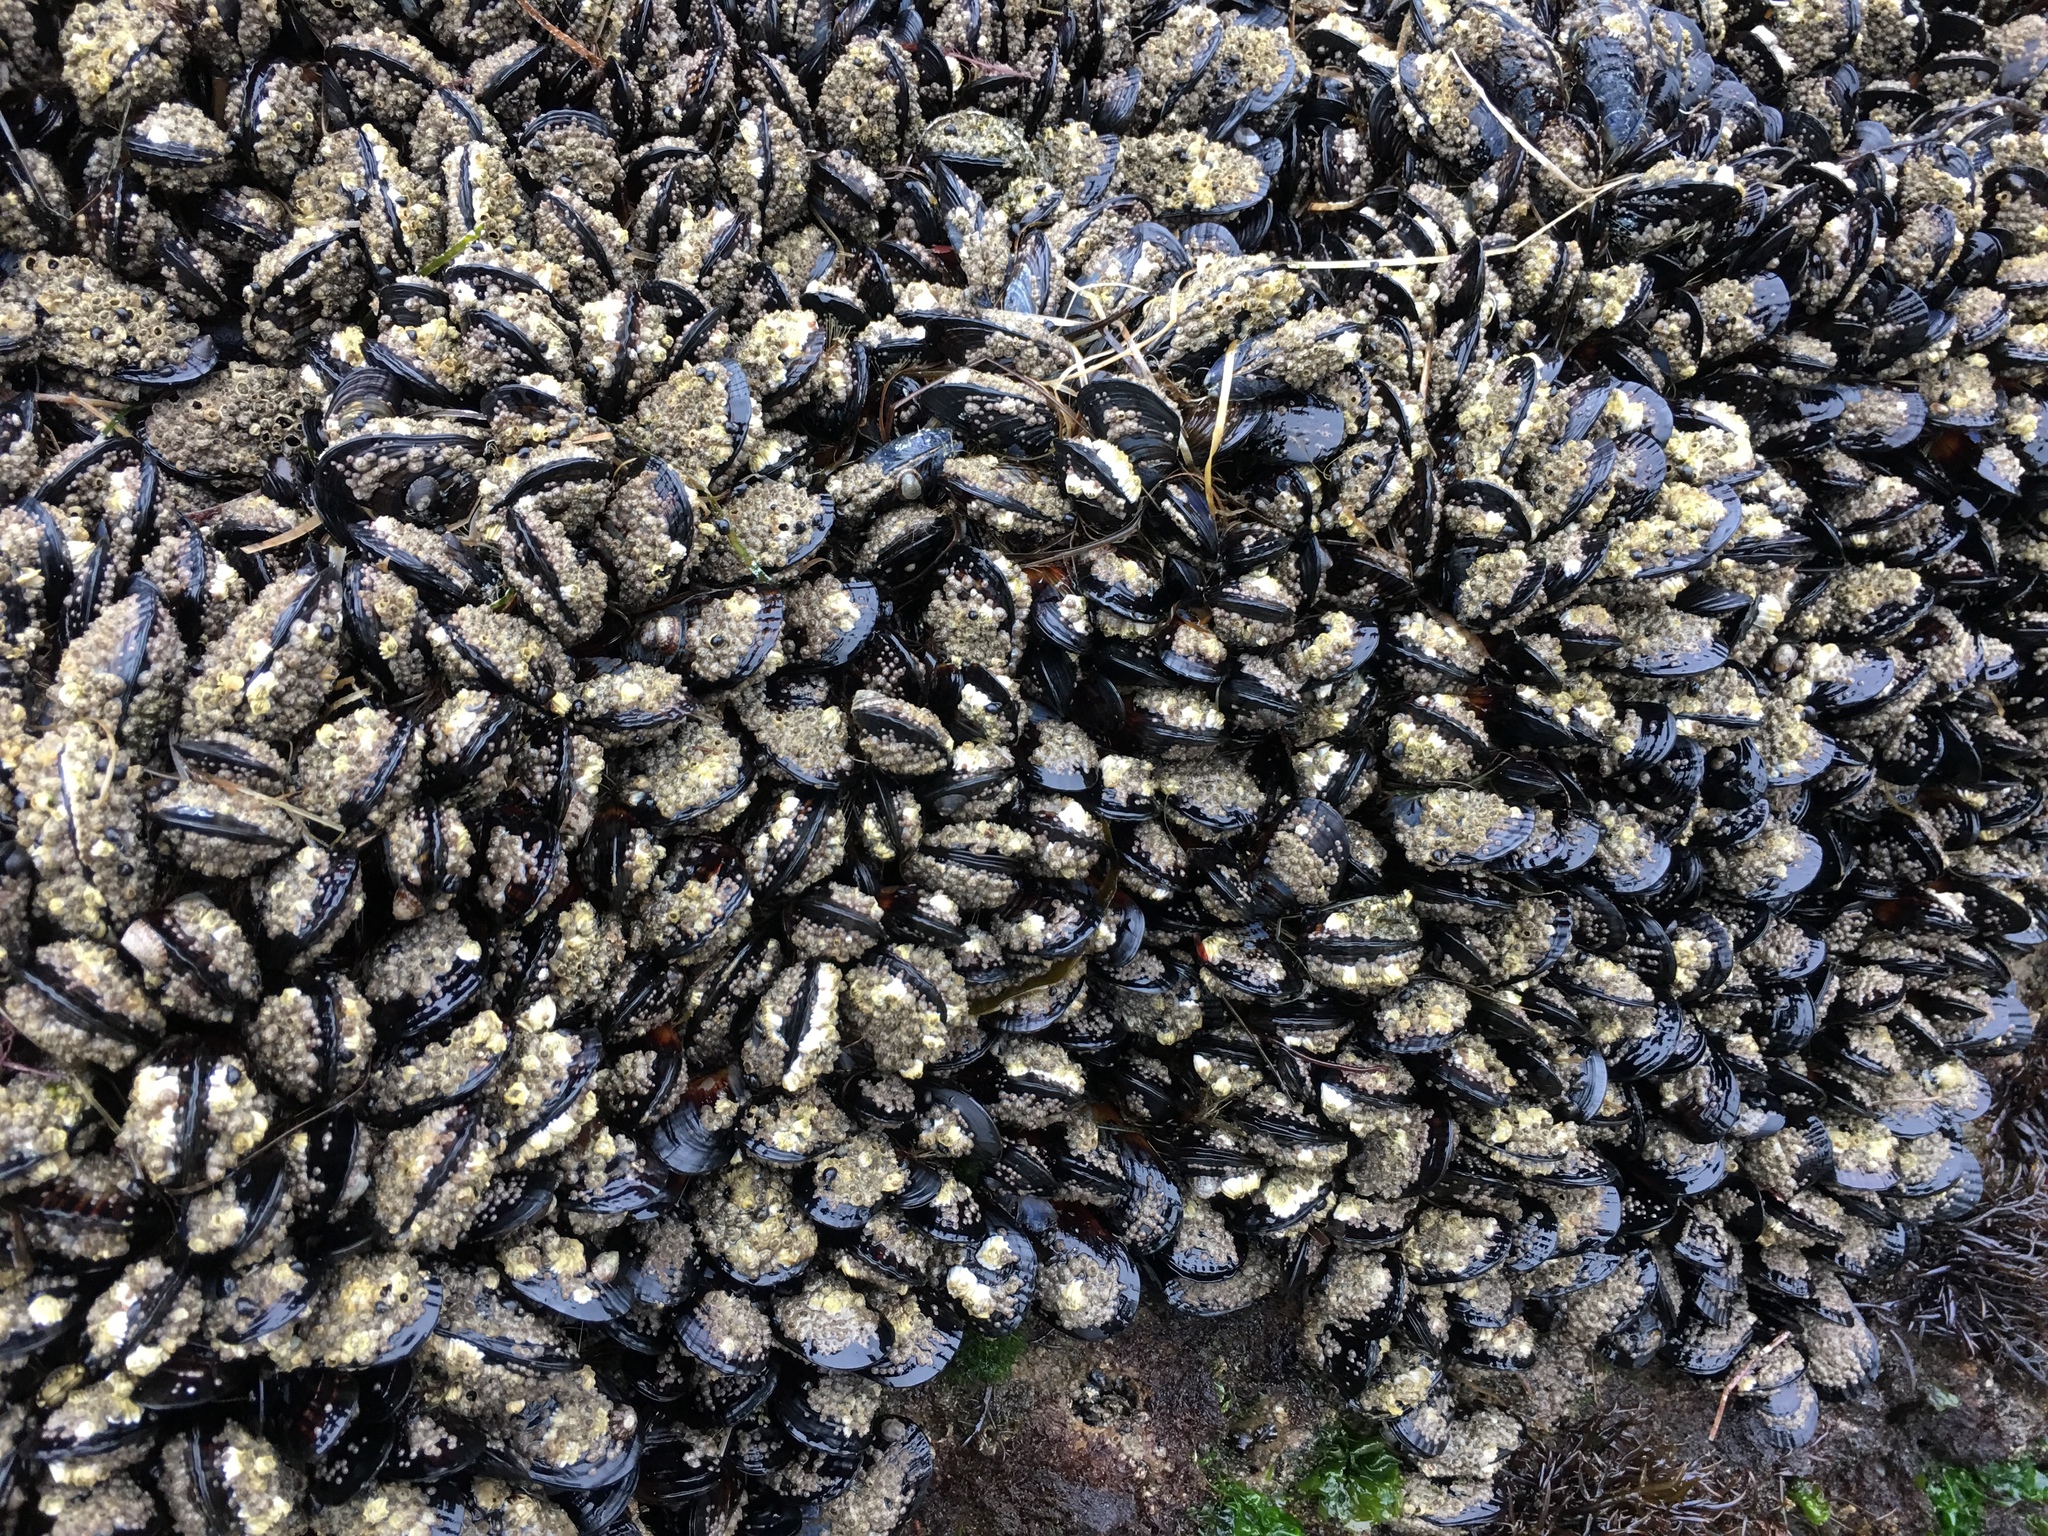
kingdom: Animalia
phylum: Mollusca
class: Bivalvia
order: Mytilida
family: Mytilidae
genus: Mytilus
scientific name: Mytilus californianus
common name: California mussel
